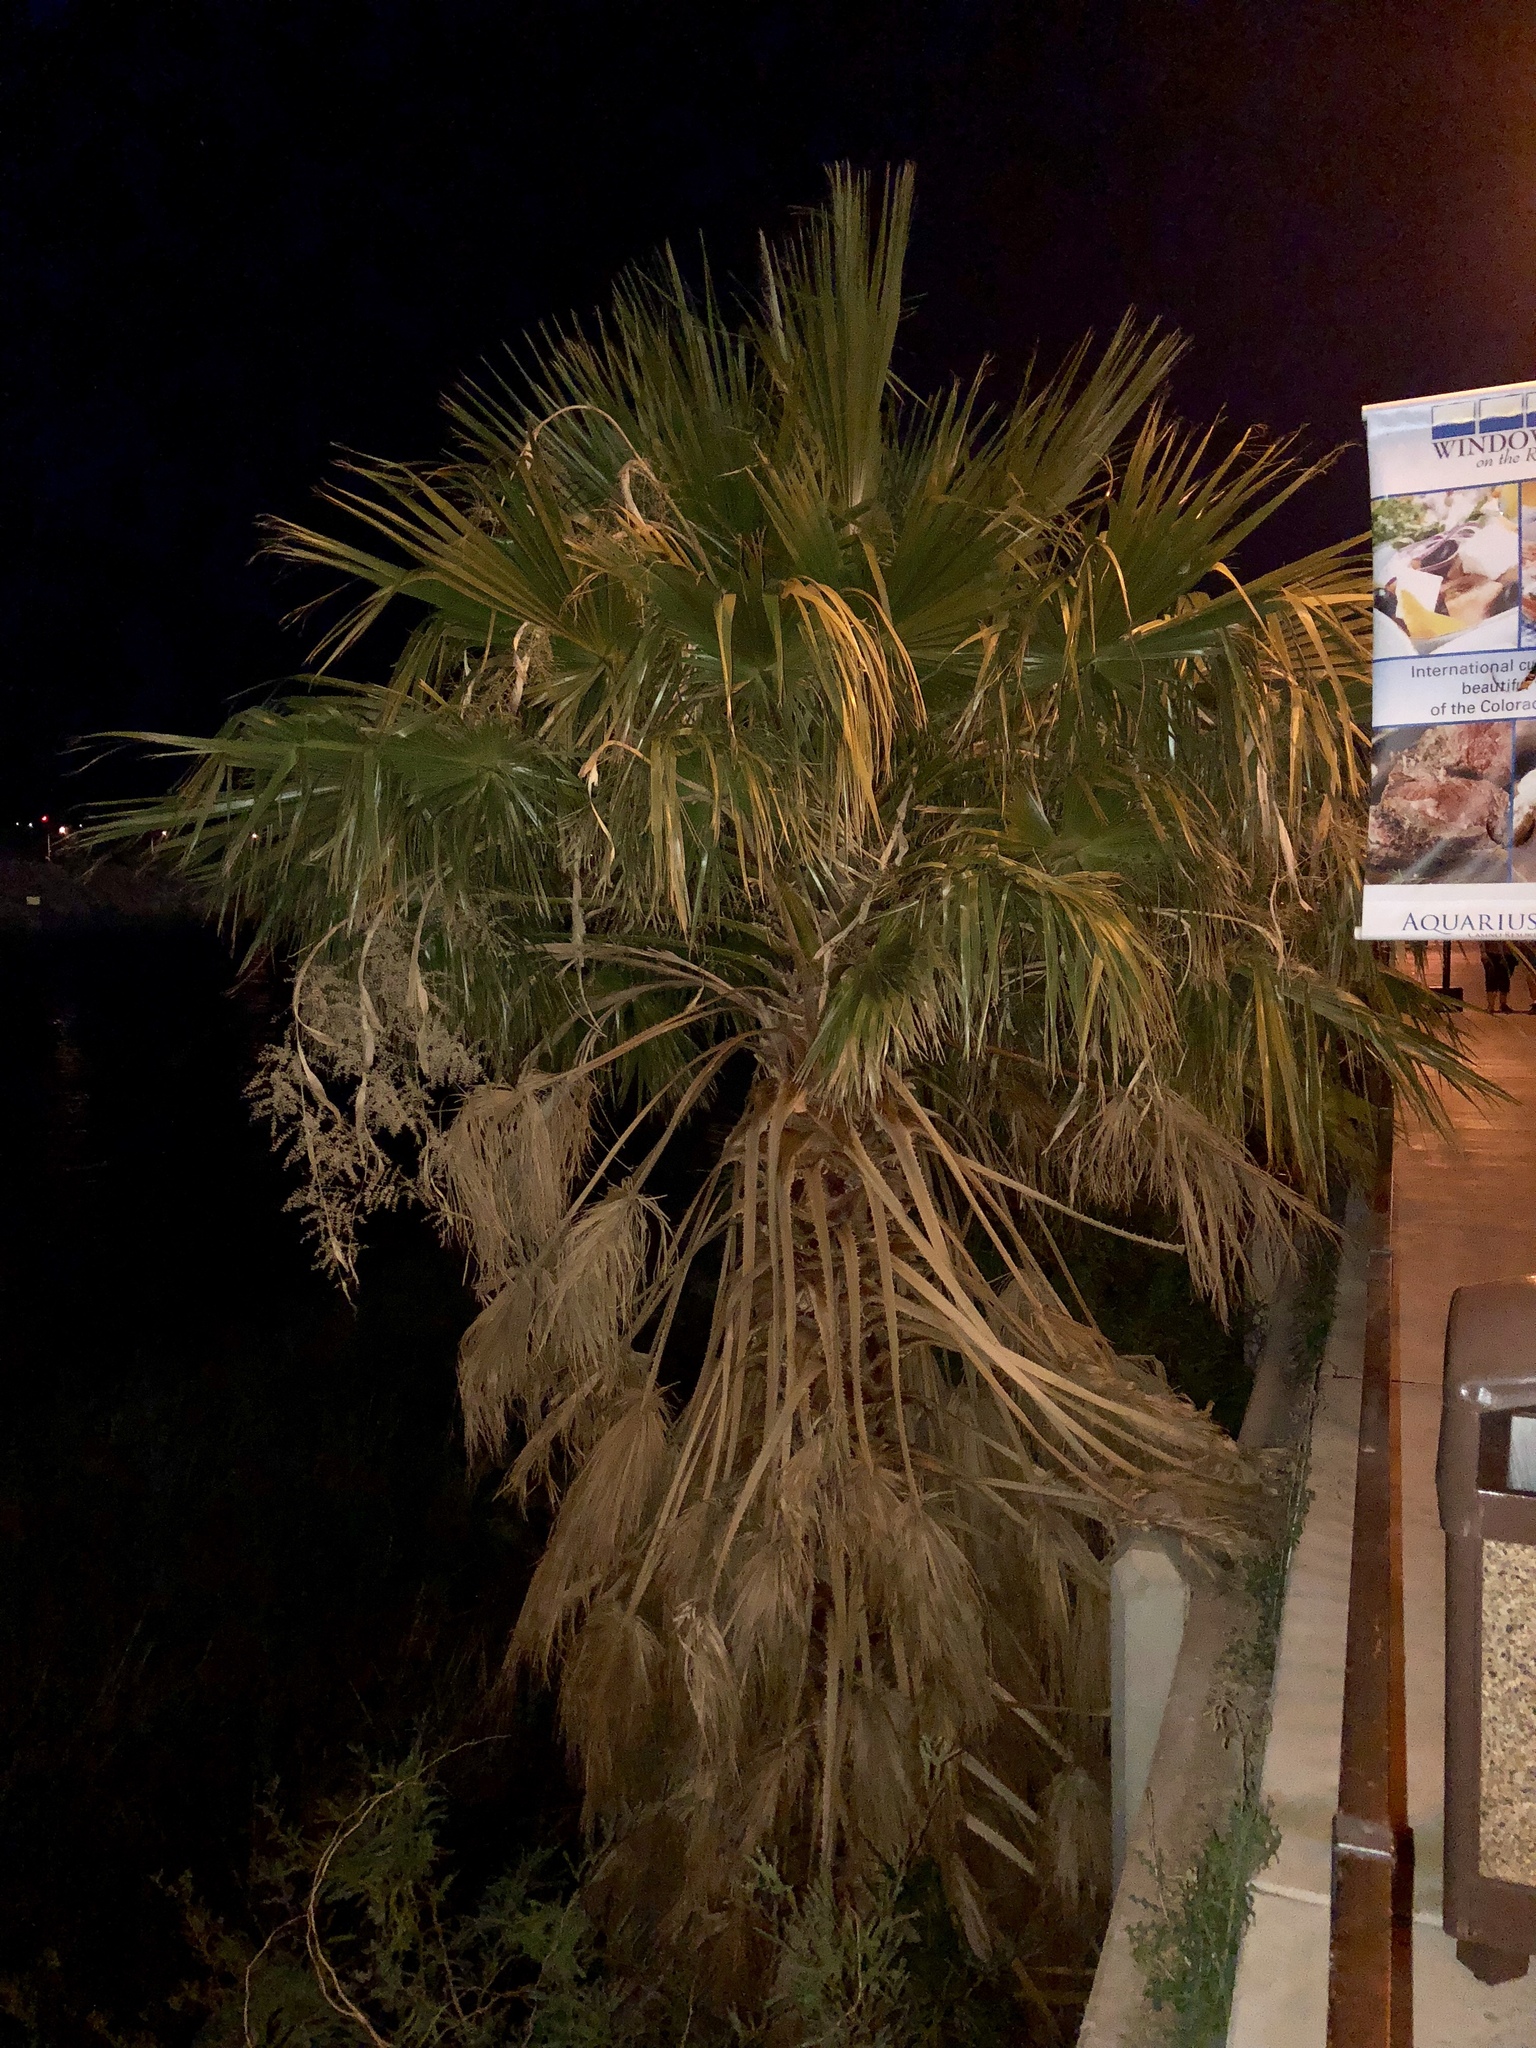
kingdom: Plantae
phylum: Tracheophyta
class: Liliopsida
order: Arecales
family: Arecaceae
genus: Washingtonia
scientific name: Washingtonia filifera
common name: California fan palm
